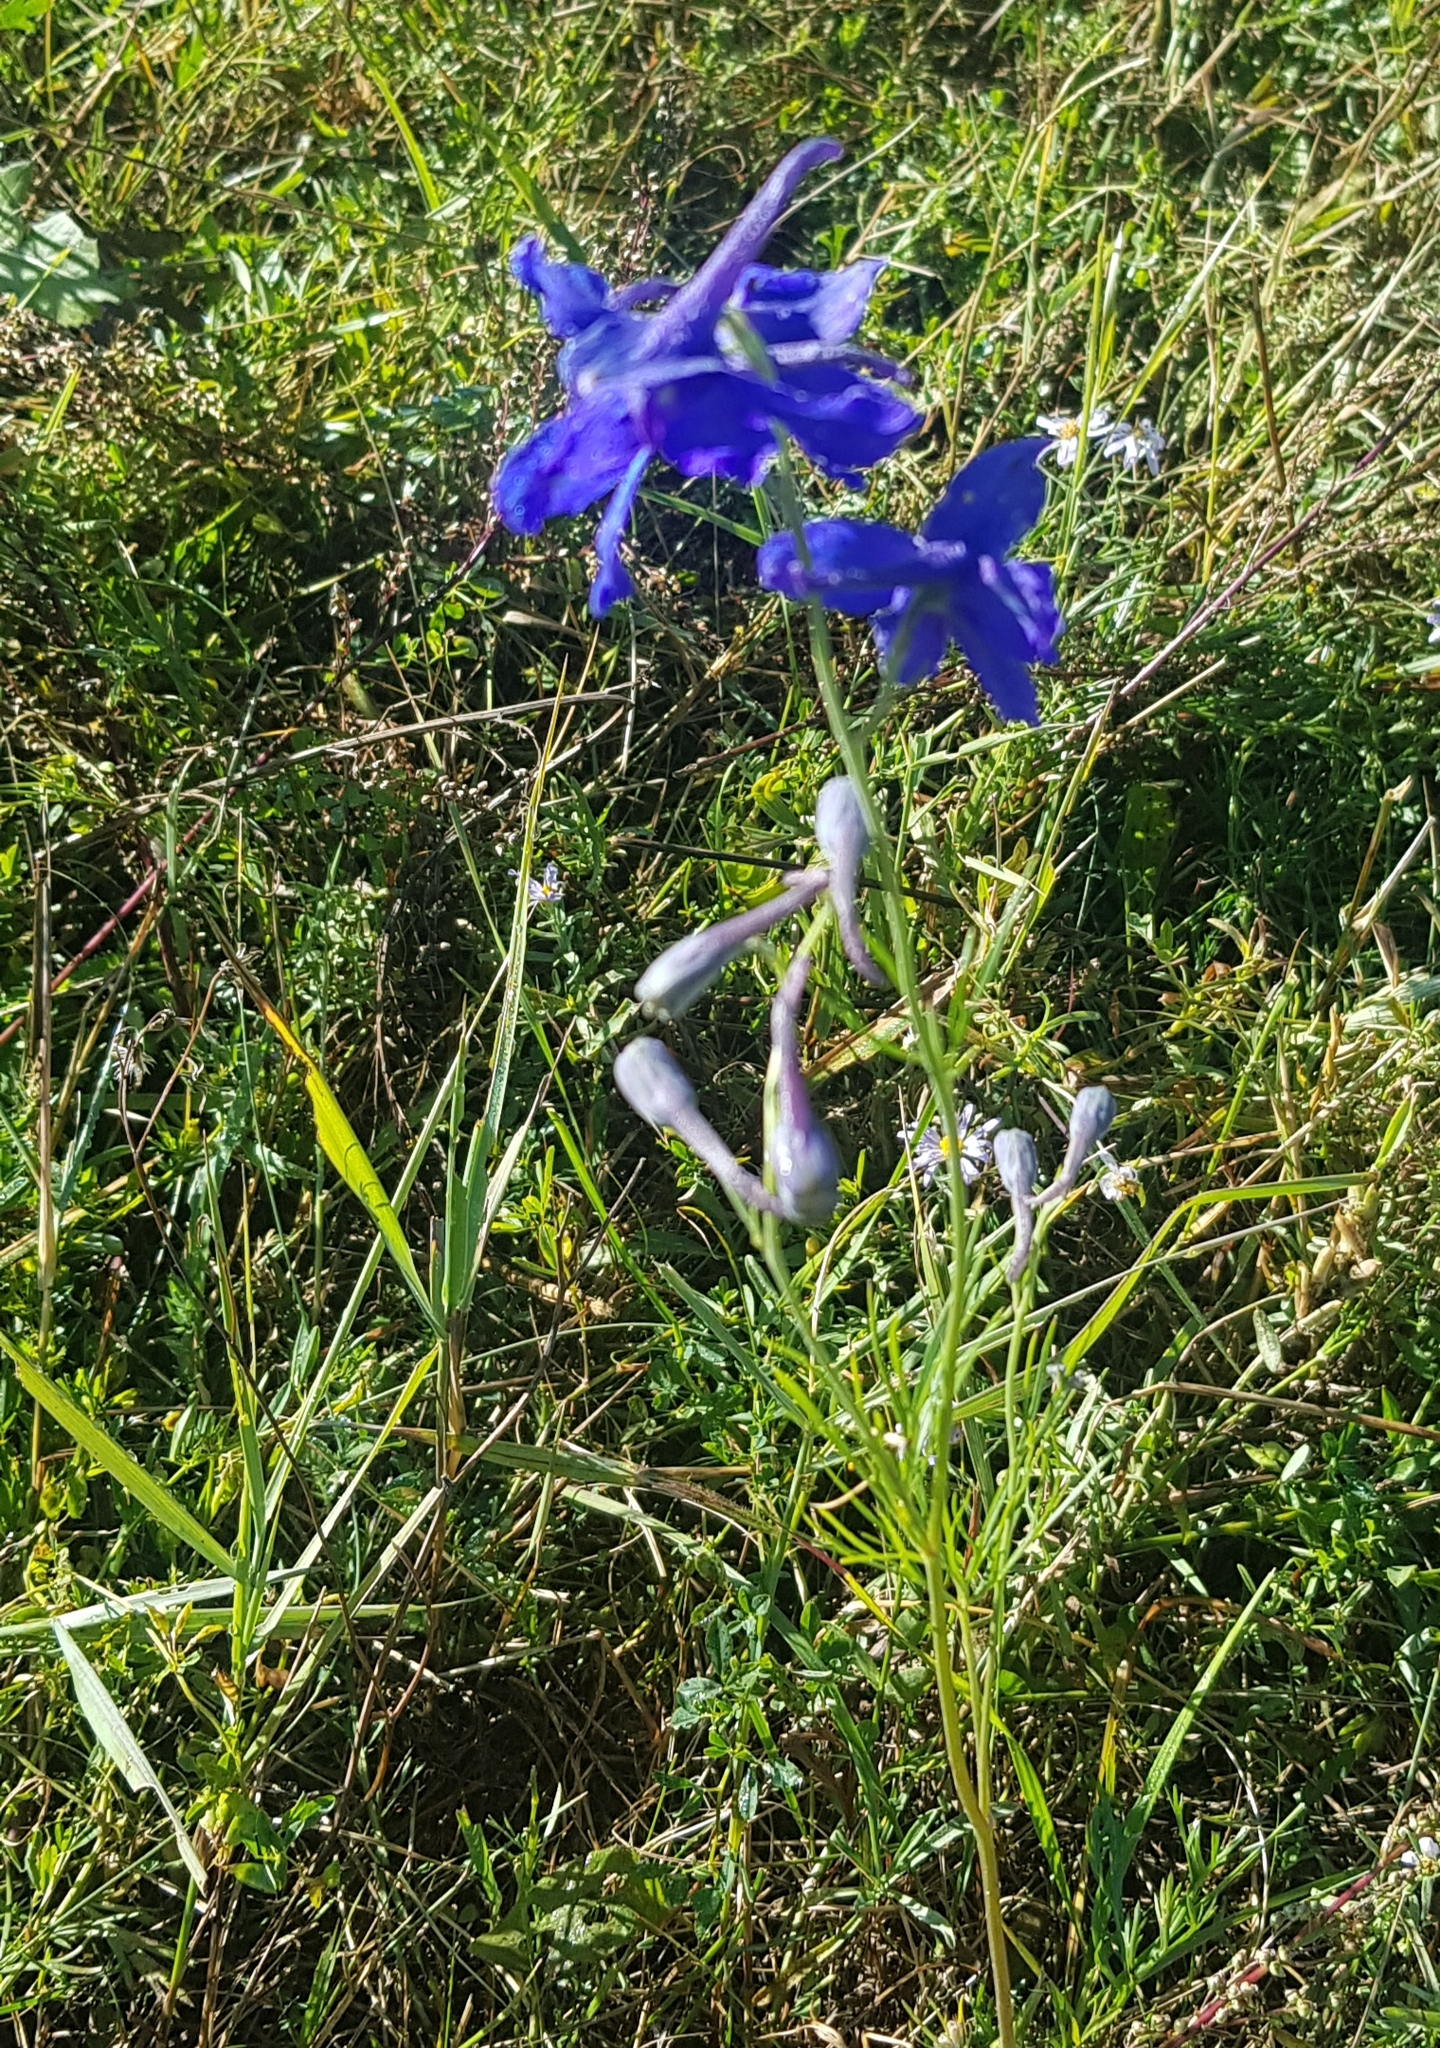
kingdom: Plantae
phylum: Tracheophyta
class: Magnoliopsida
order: Ranunculales
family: Ranunculaceae
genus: Delphinium
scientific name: Delphinium grandiflorum
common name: Siberian larkspur
